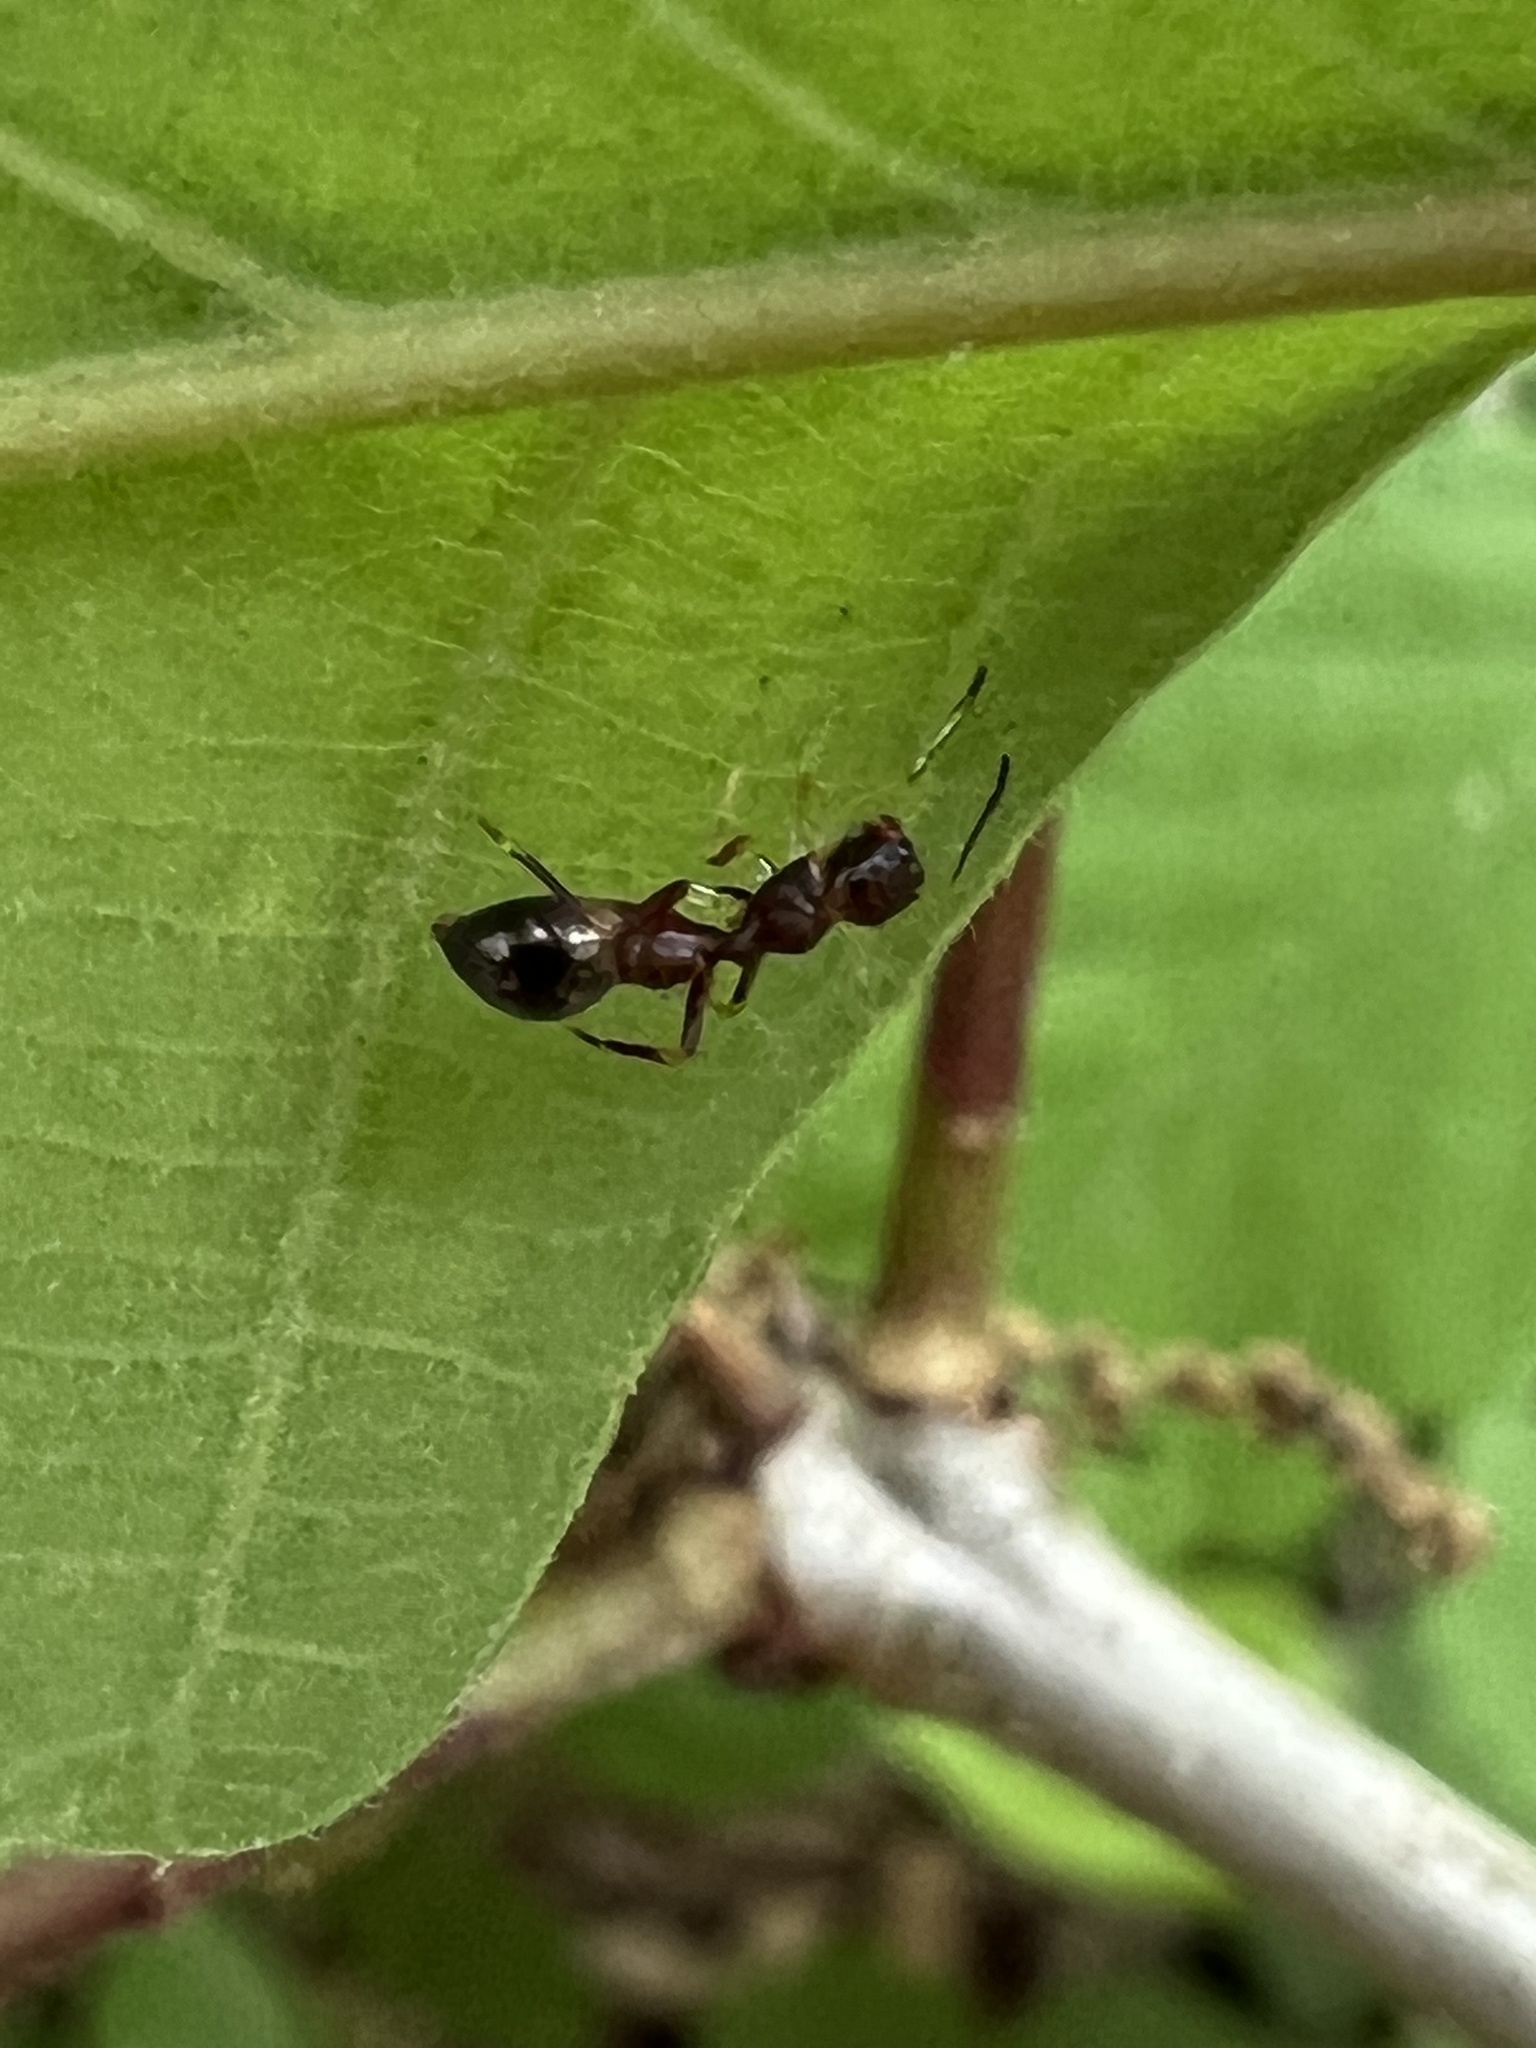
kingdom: Animalia
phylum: Arthropoda
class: Arachnida
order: Araneae
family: Salticidae
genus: Synemosyna
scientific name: Synemosyna formica
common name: Slender ant-mimic jumping spider
